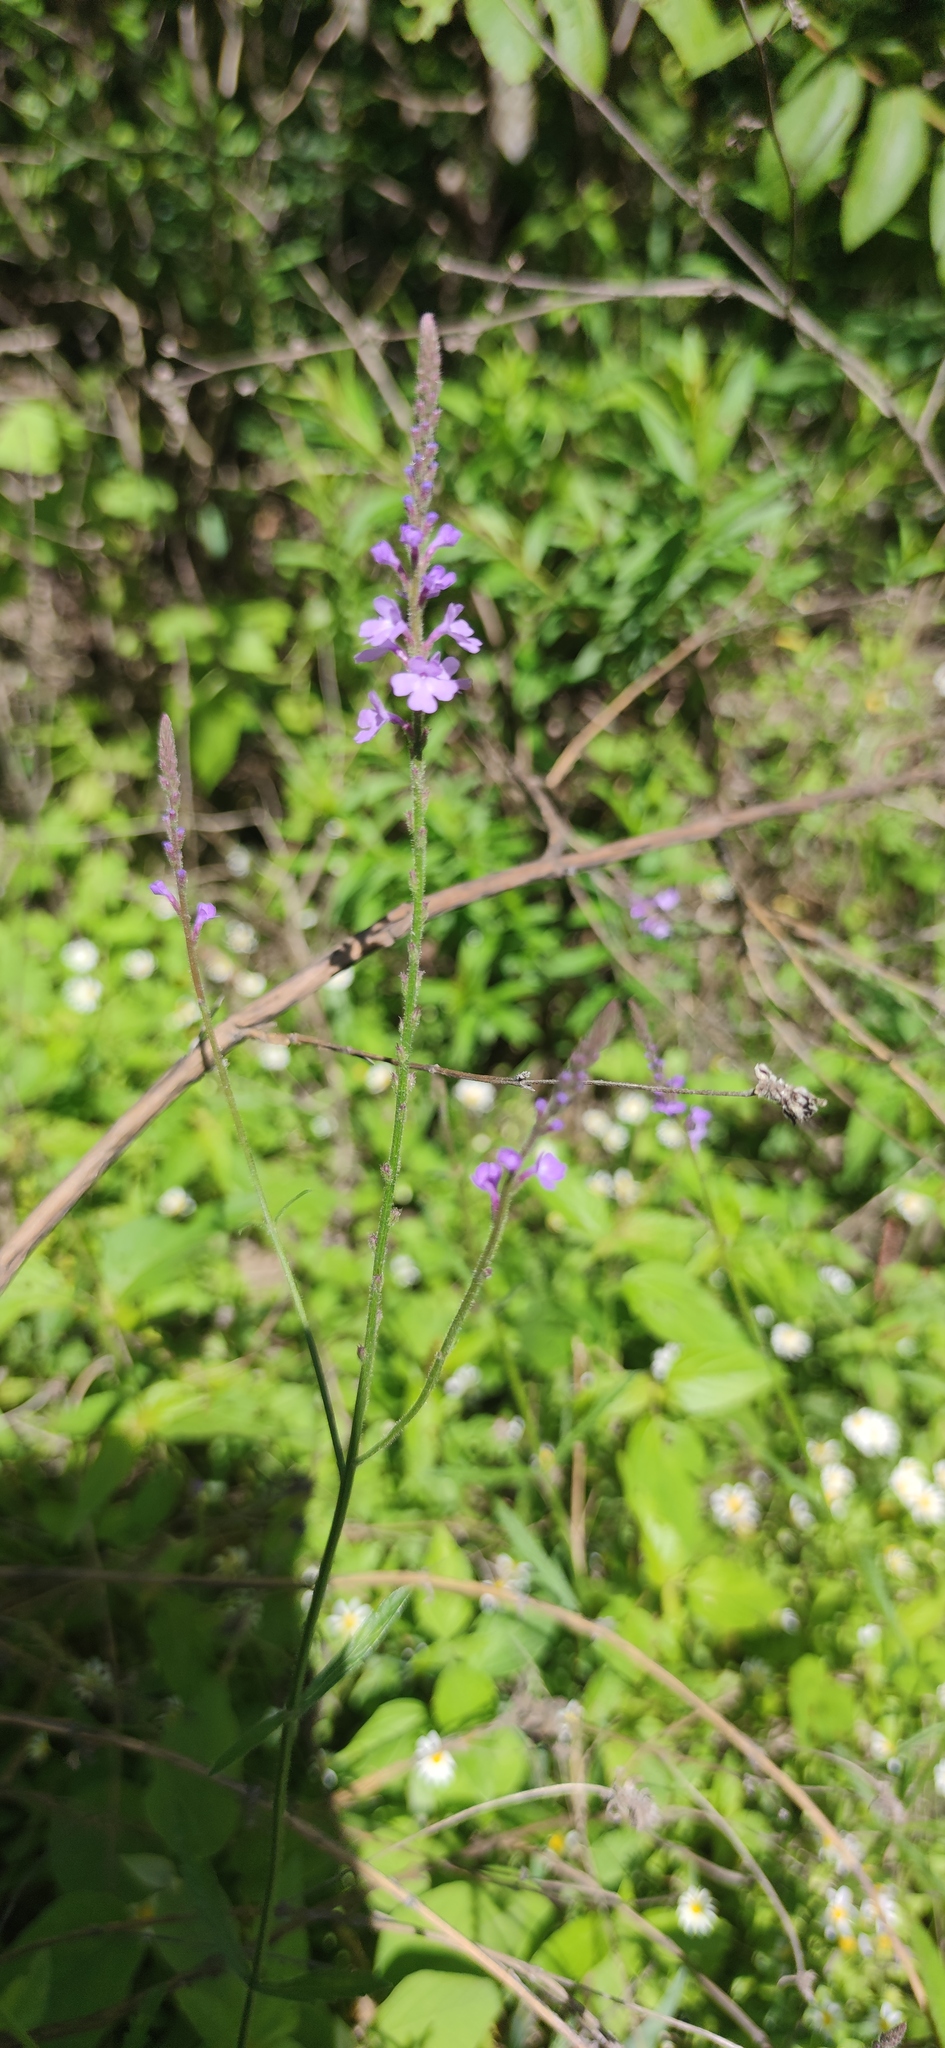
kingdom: Plantae
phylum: Tracheophyta
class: Magnoliopsida
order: Lamiales
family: Verbenaceae
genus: Verbena
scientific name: Verbena halei
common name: Texas vervain
